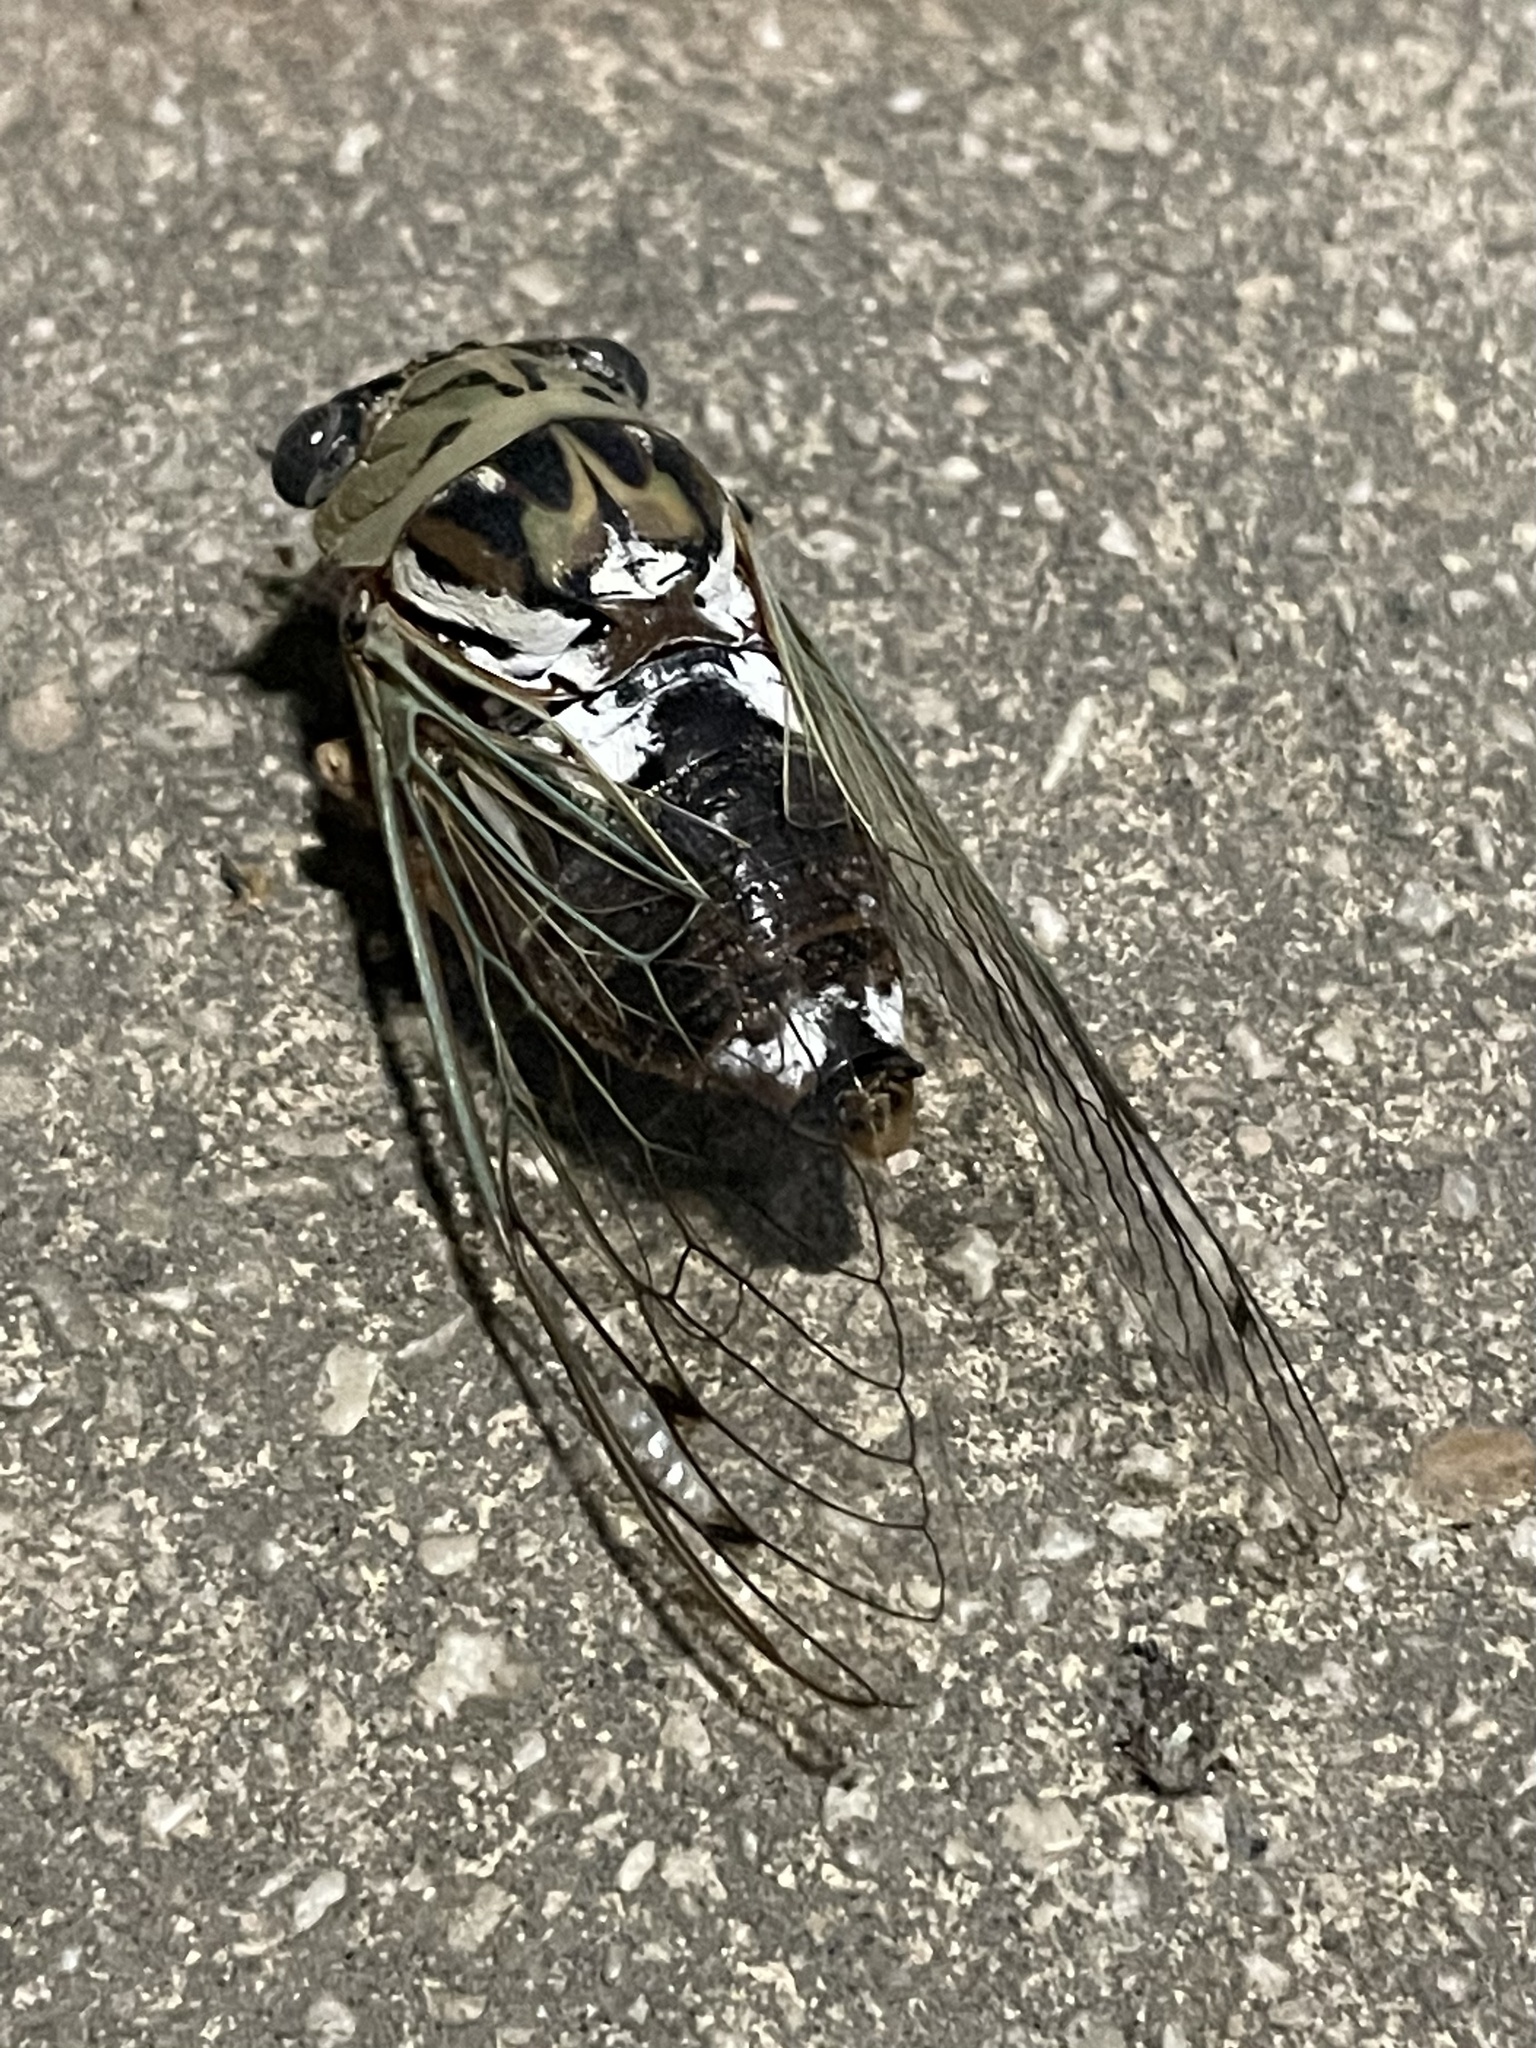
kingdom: Animalia
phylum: Arthropoda
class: Insecta
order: Hemiptera
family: Cicadidae
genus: Megatibicen
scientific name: Megatibicen resh
